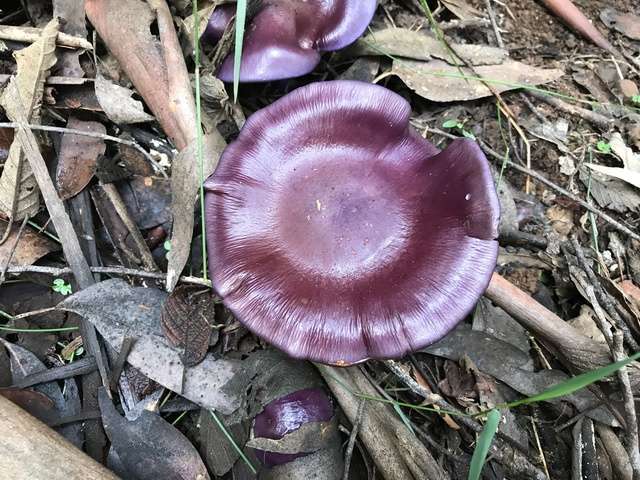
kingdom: Fungi
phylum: Basidiomycota
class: Agaricomycetes
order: Agaricales
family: Cortinariaceae
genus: Cortinarius
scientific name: Cortinarius archeri
